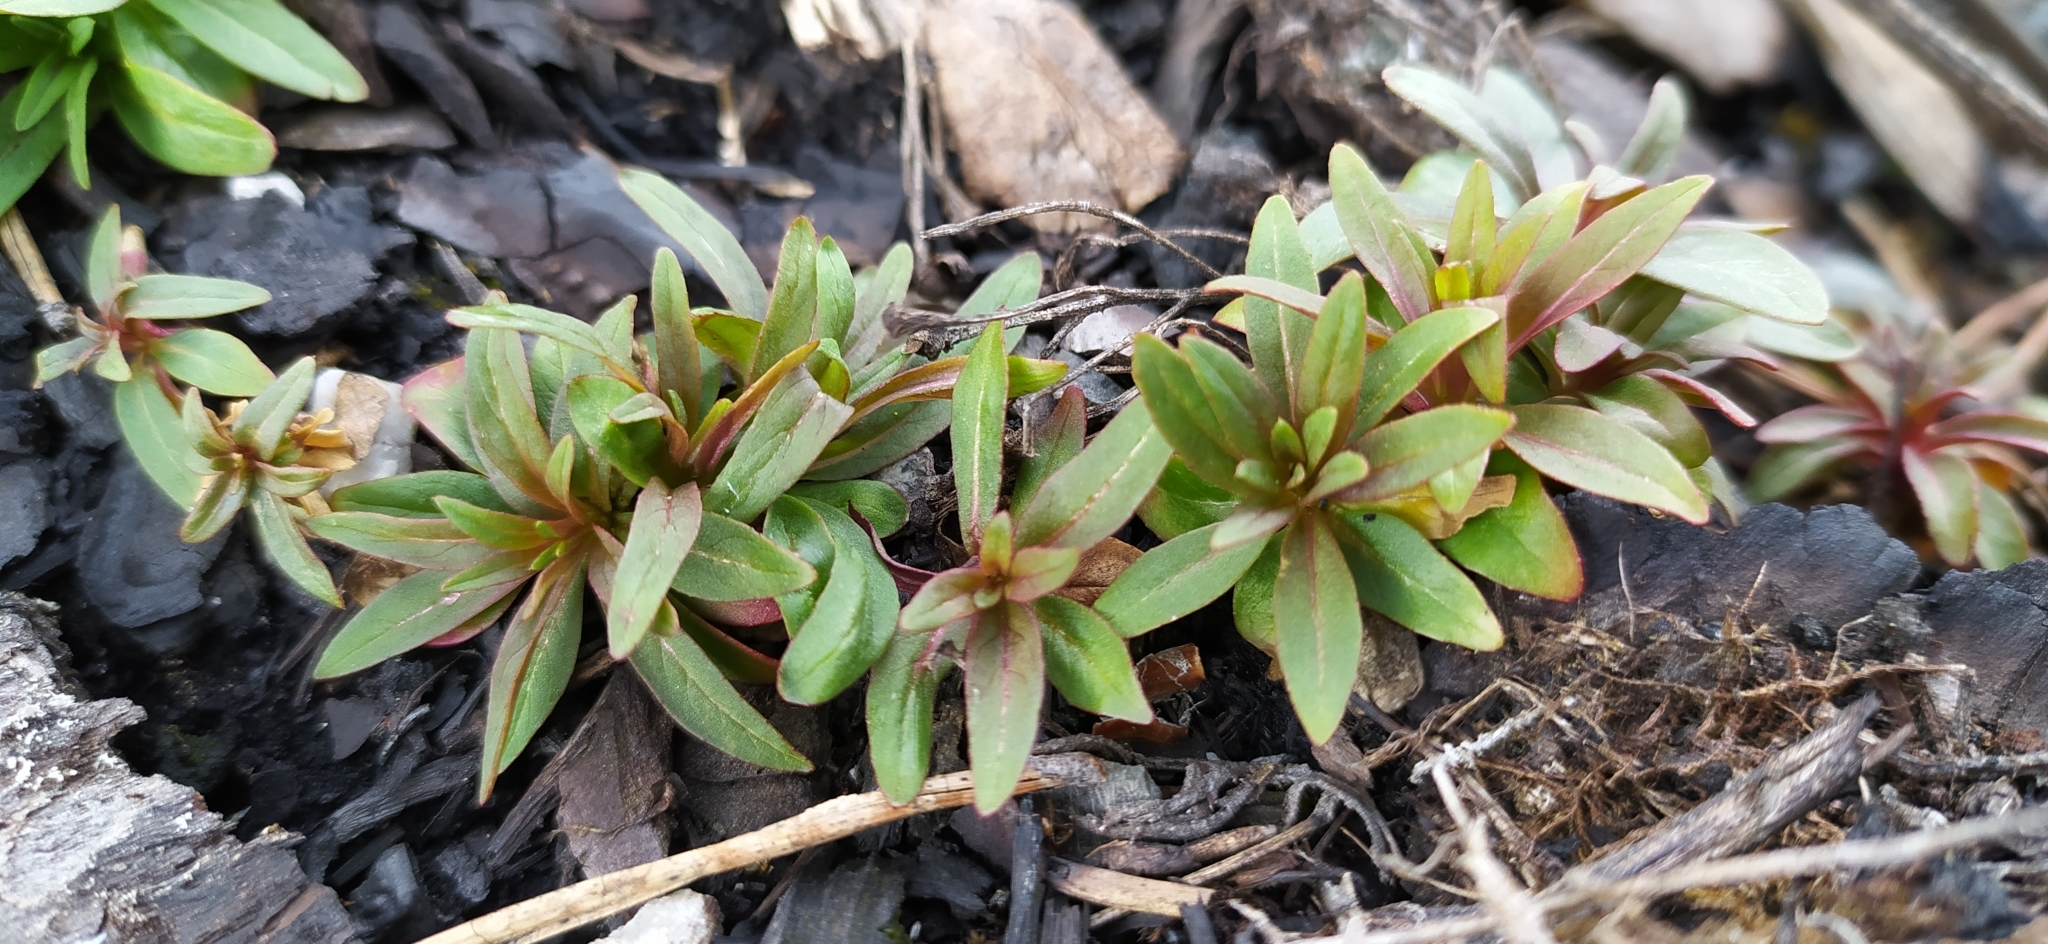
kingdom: Plantae
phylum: Tracheophyta
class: Magnoliopsida
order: Myrtales
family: Onagraceae
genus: Chamaenerion
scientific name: Chamaenerion angustifolium
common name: Fireweed
